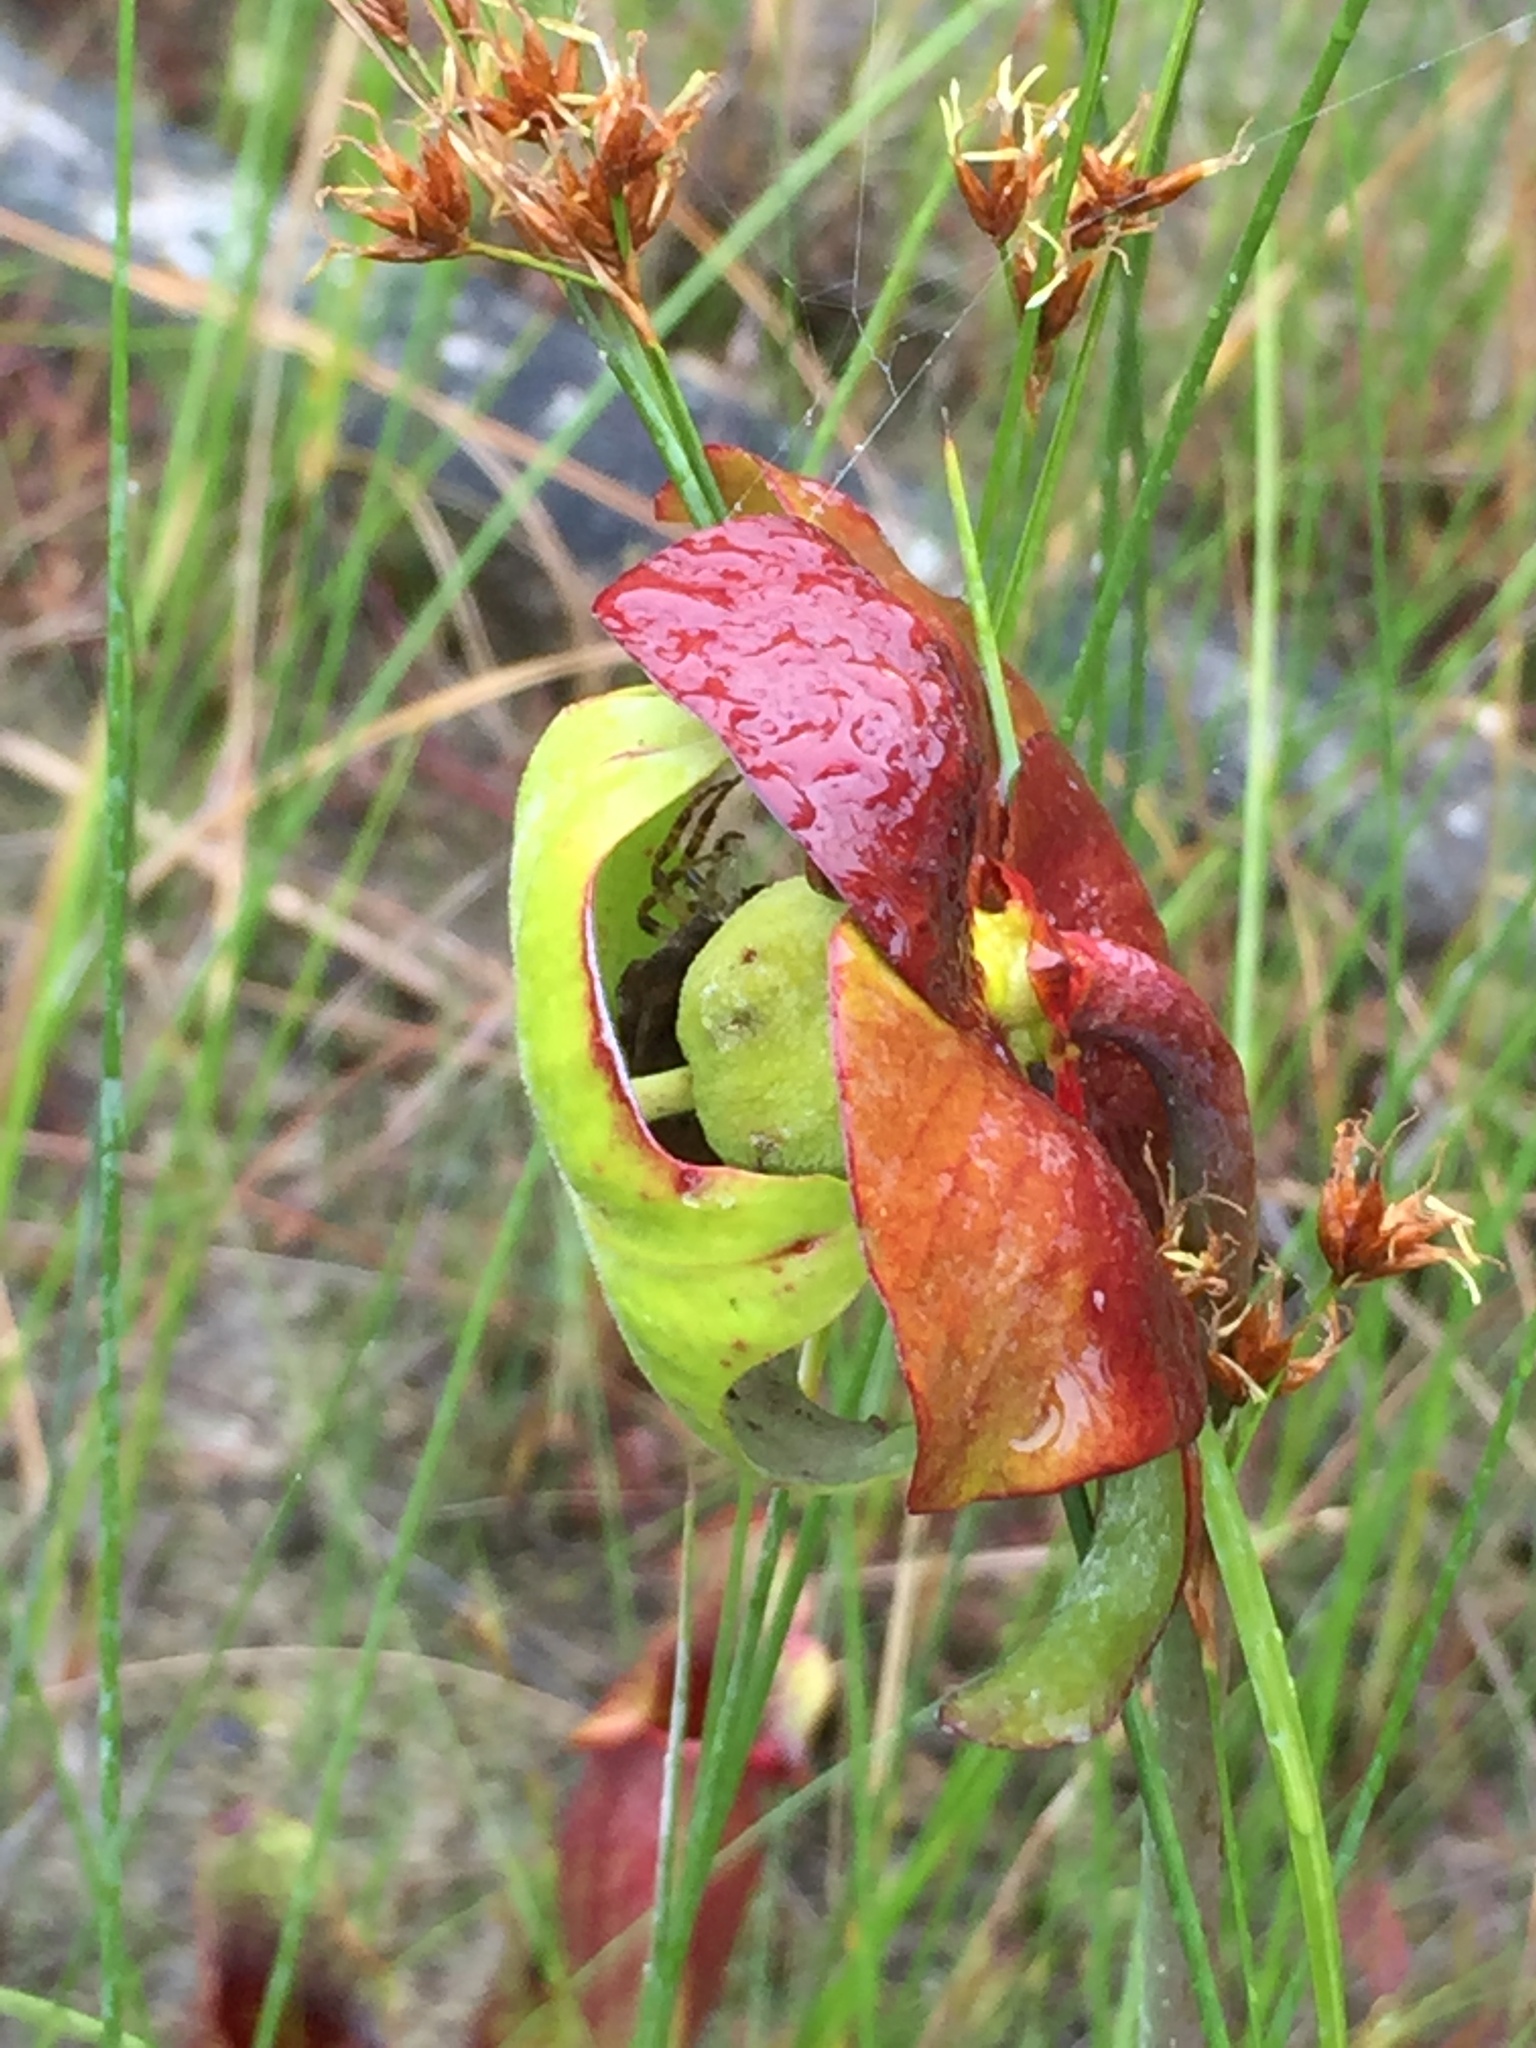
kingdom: Plantae
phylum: Tracheophyta
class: Magnoliopsida
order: Ericales
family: Sarraceniaceae
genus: Sarracenia
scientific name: Sarracenia purpurea
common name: Pitcherplant
